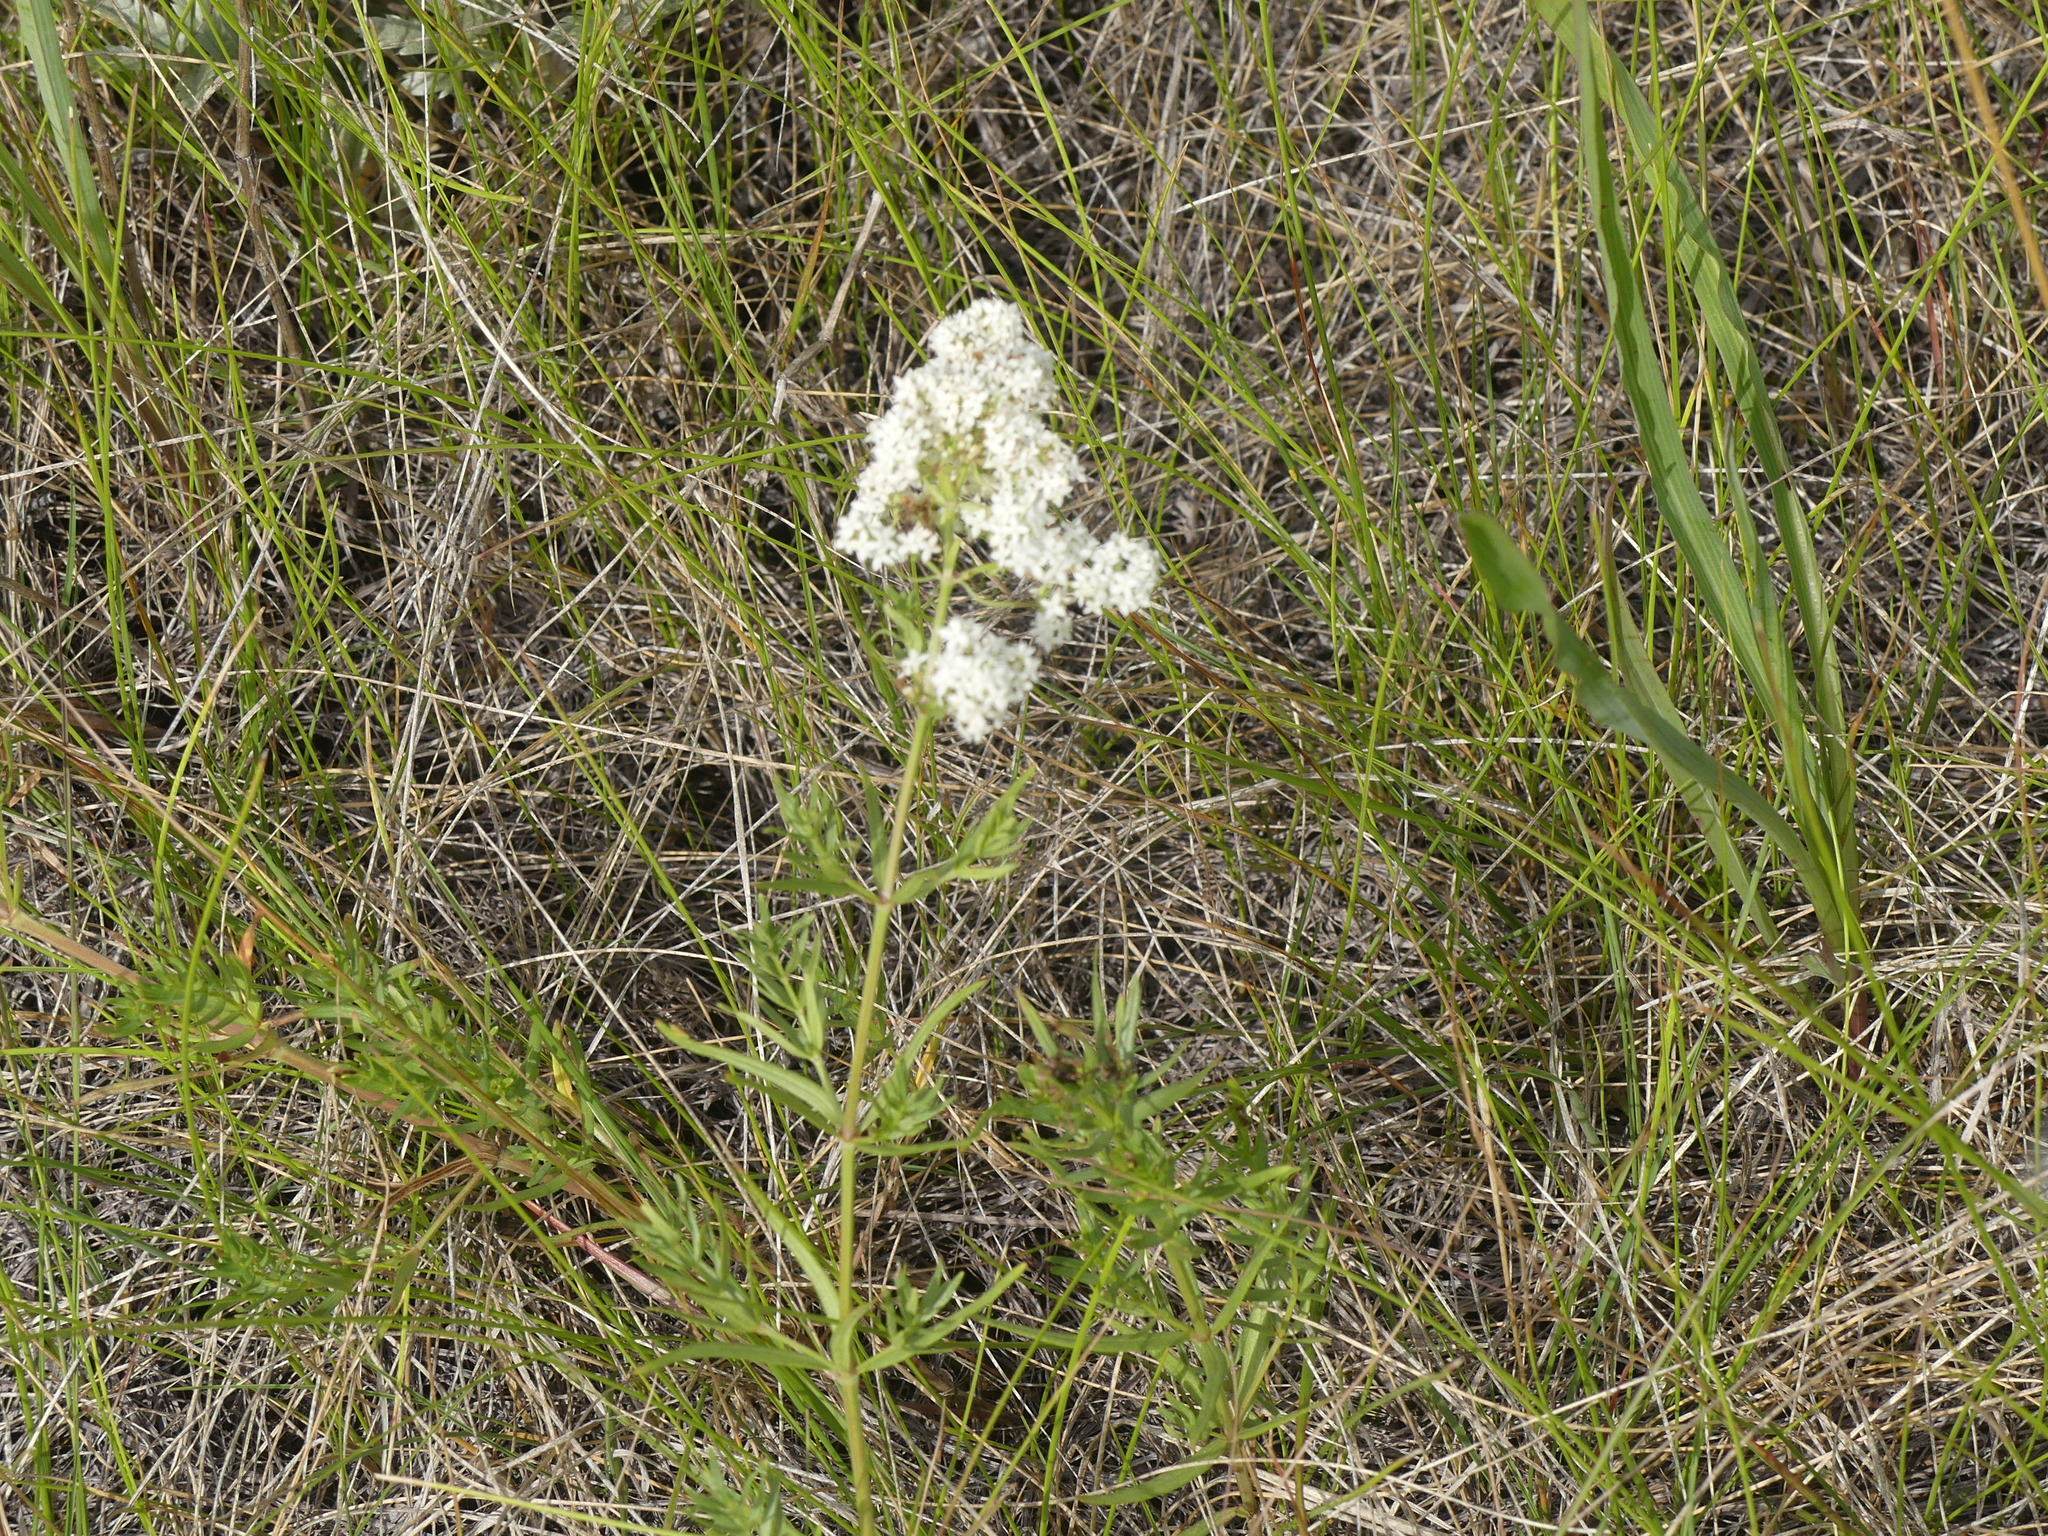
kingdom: Plantae
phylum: Tracheophyta
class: Magnoliopsida
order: Gentianales
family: Rubiaceae
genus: Galium
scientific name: Galium boreale
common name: Northern bedstraw
